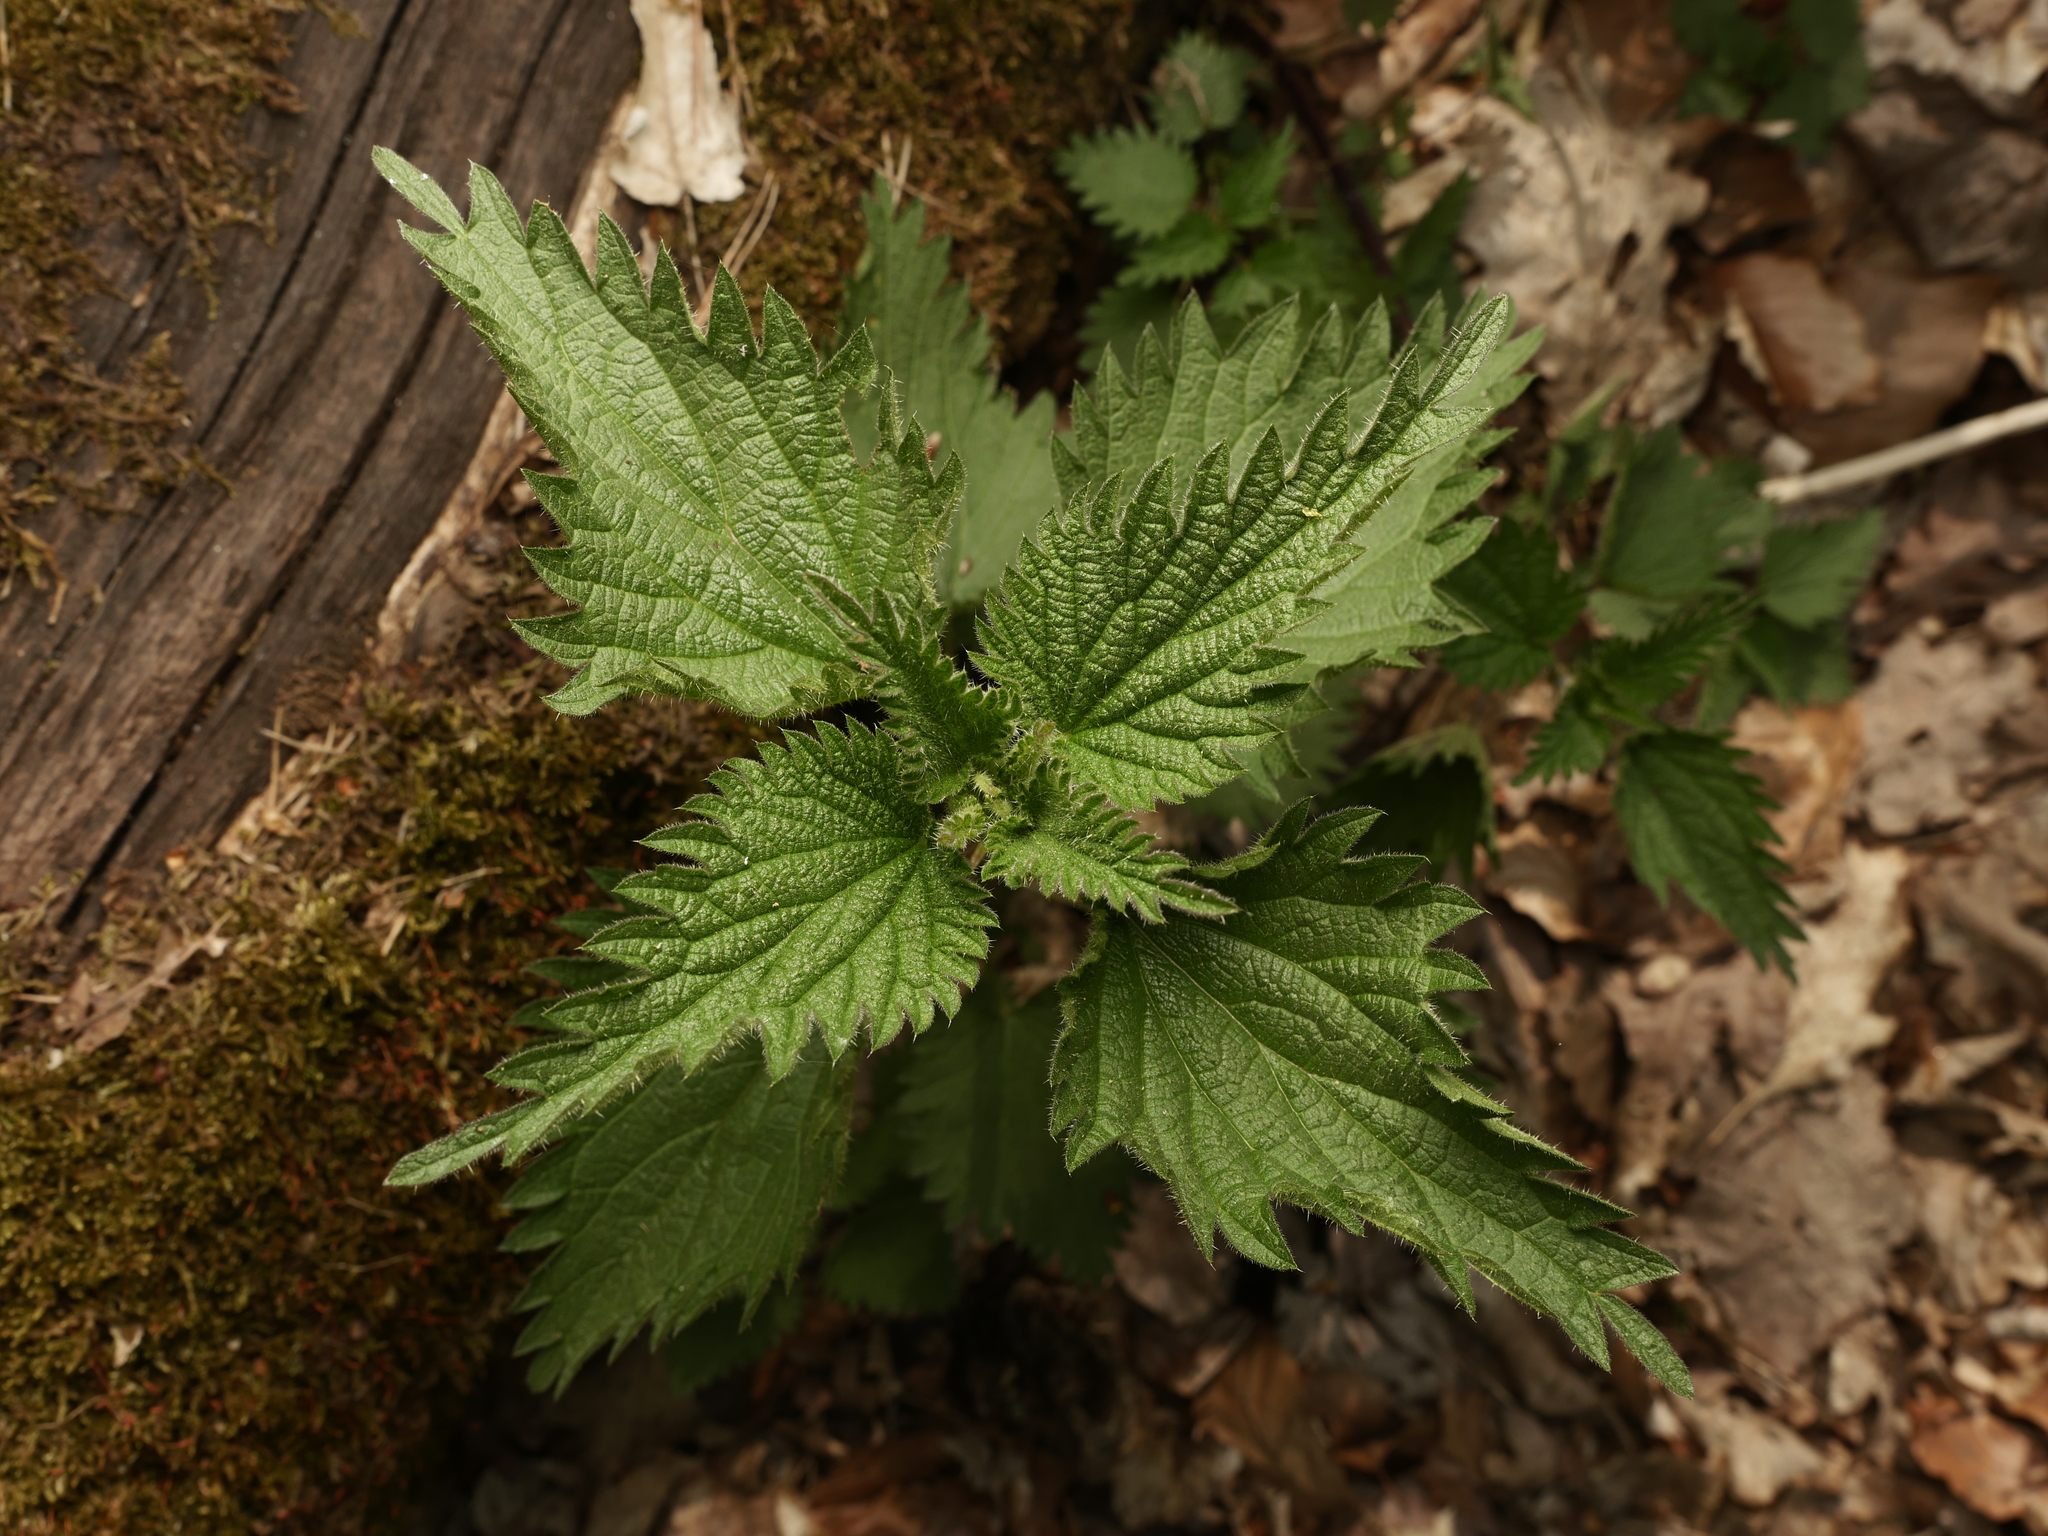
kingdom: Plantae
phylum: Tracheophyta
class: Magnoliopsida
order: Rosales
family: Urticaceae
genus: Urtica
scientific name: Urtica dioica
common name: Common nettle
